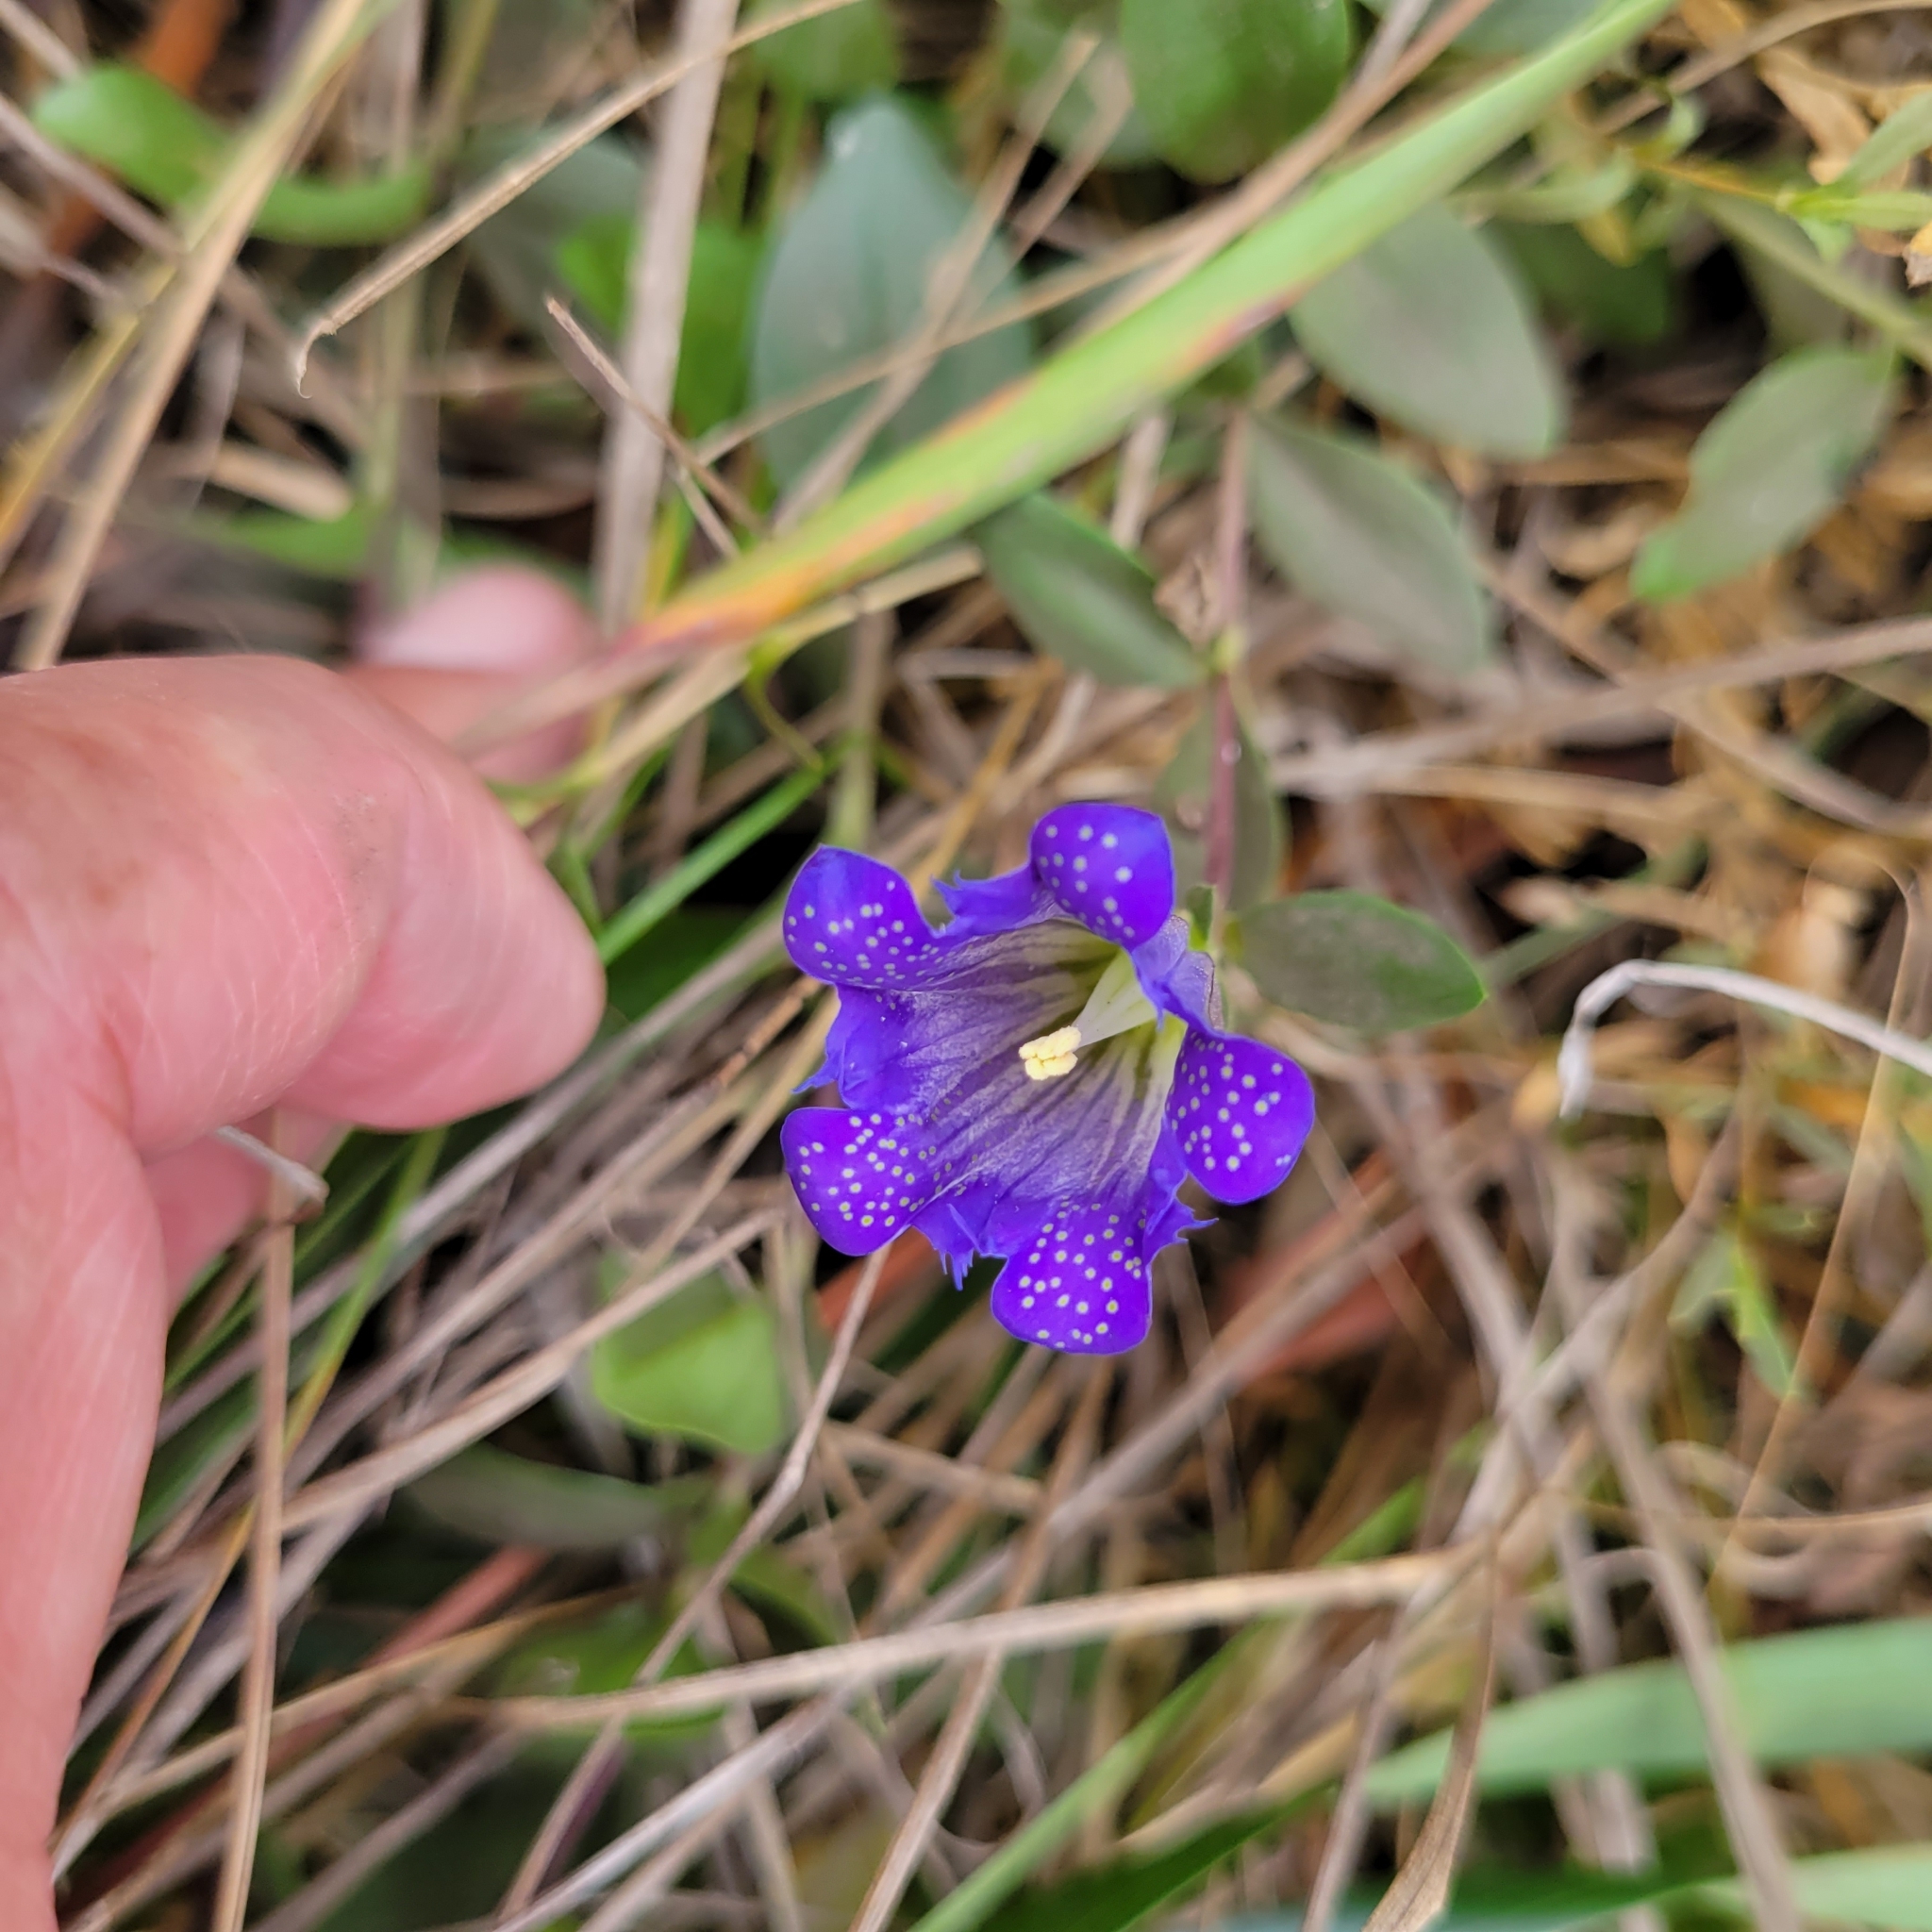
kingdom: Plantae
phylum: Tracheophyta
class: Magnoliopsida
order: Gentianales
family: Gentianaceae
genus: Gentiana
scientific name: Gentiana affinis
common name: Rocky mountain gentian
